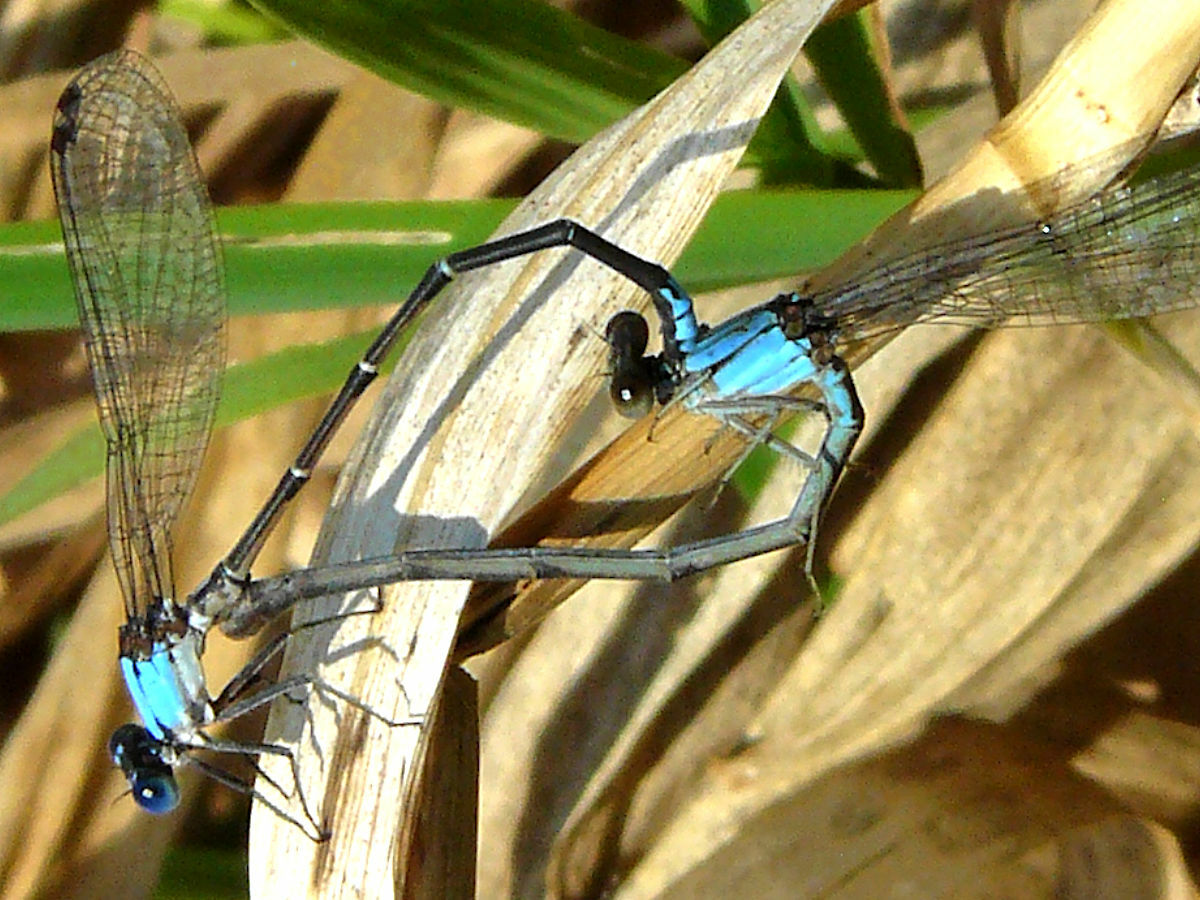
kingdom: Animalia
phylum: Arthropoda
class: Insecta
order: Odonata
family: Coenagrionidae
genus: Argia
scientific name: Argia apicalis
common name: Blue-fronted dancer
